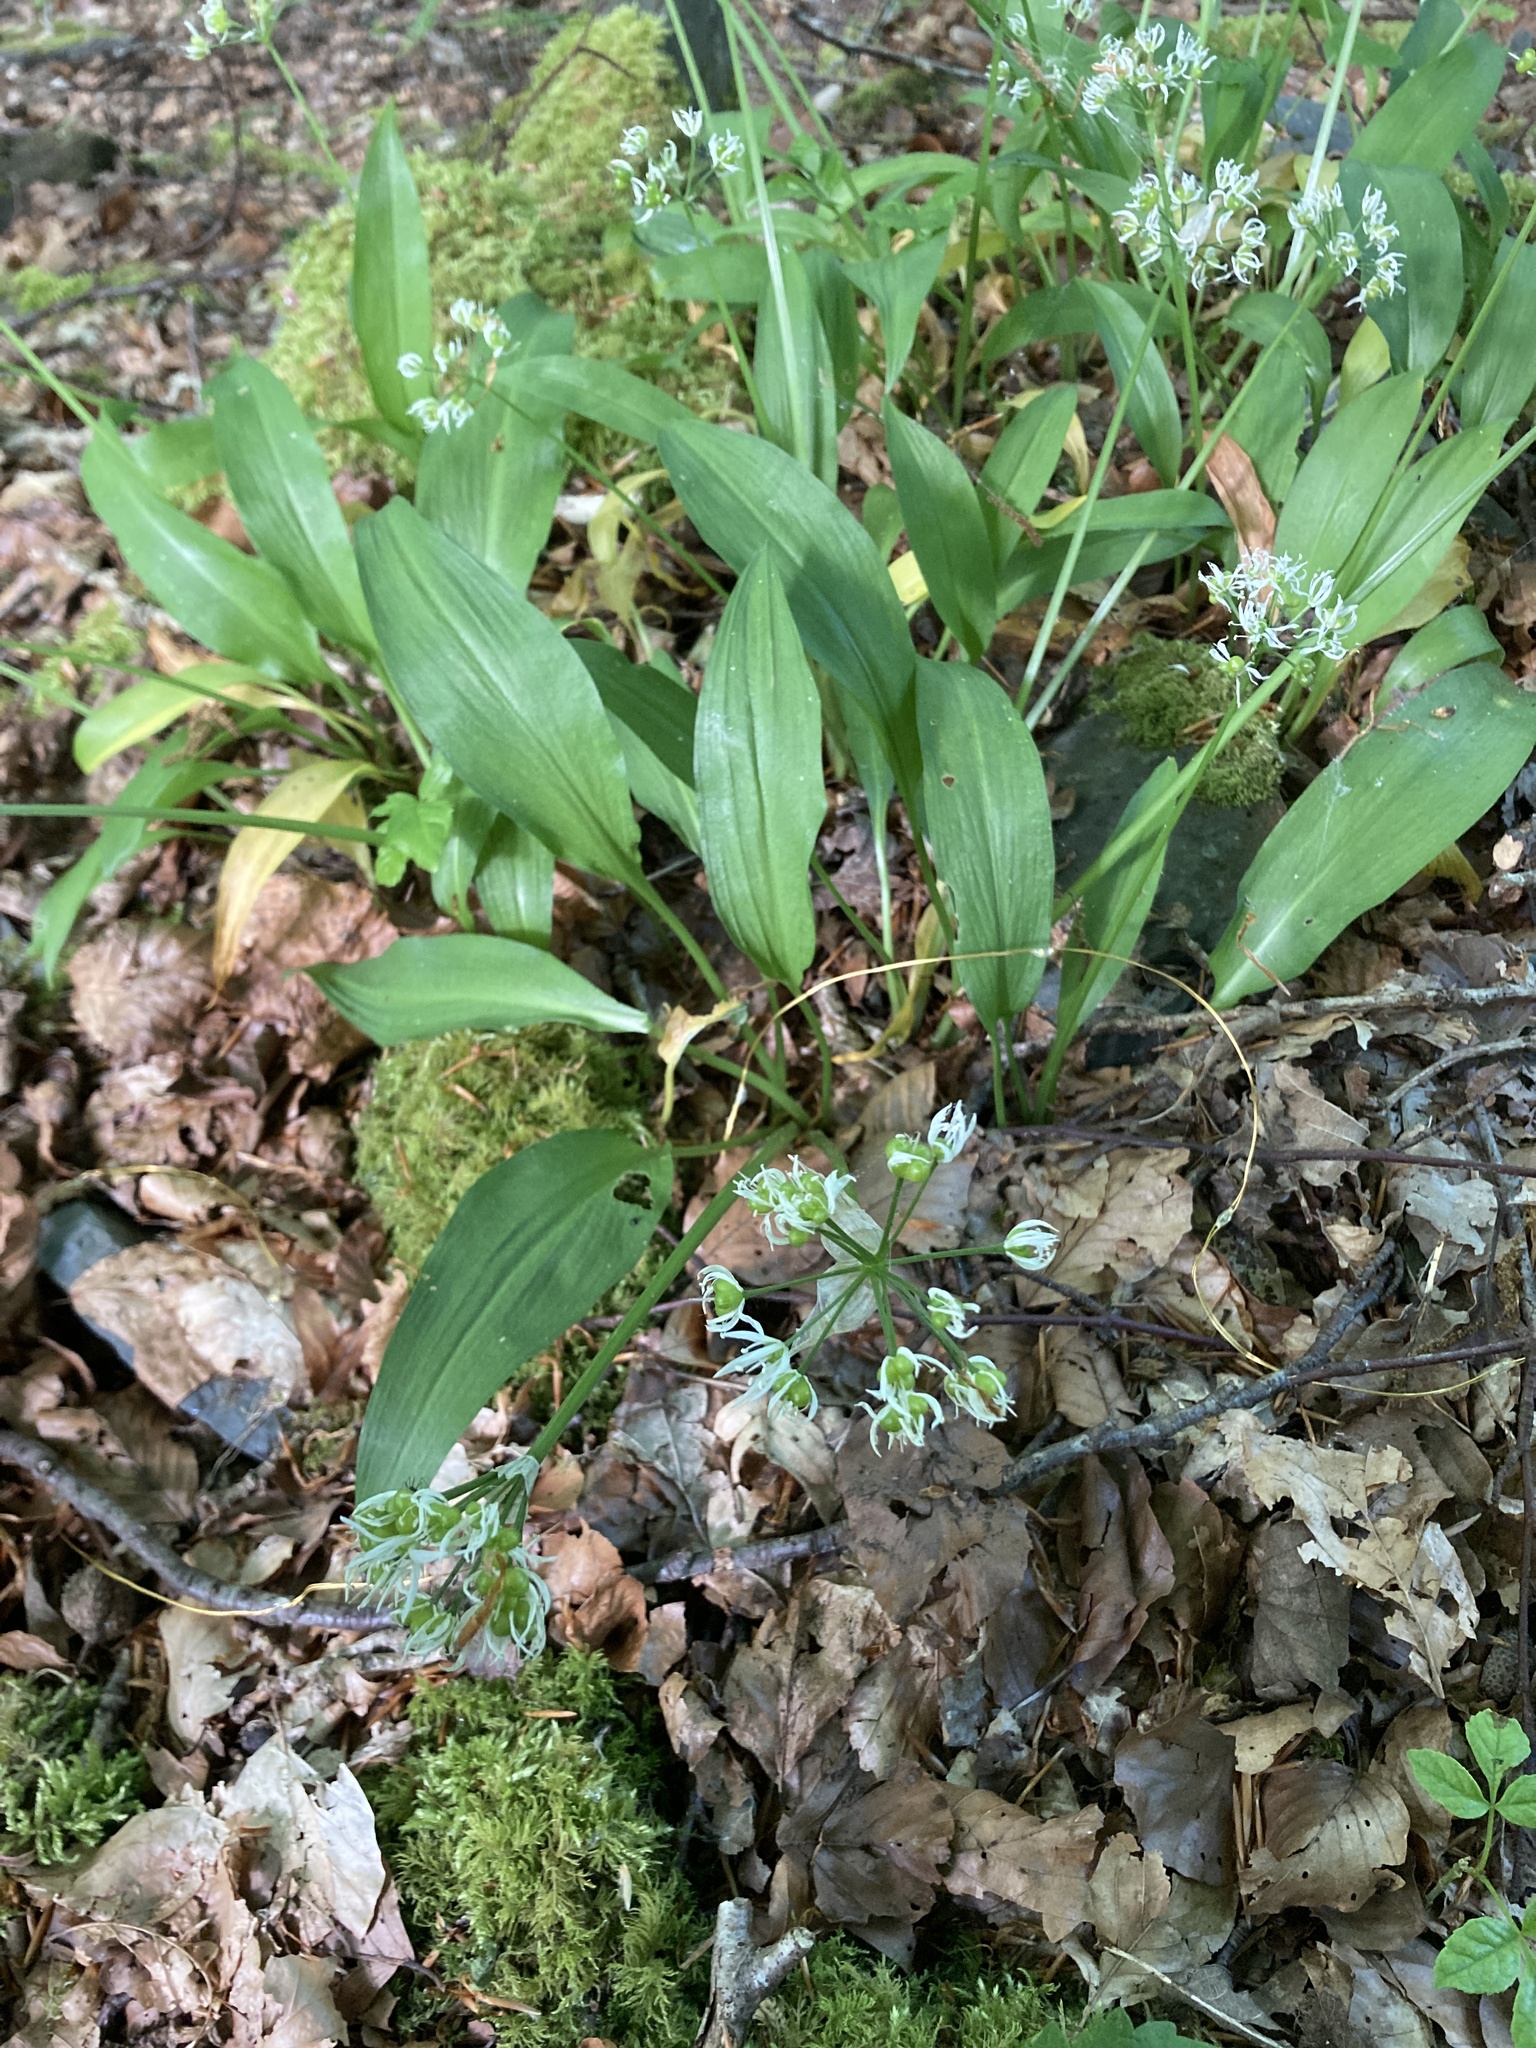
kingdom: Plantae
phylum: Tracheophyta
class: Liliopsida
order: Asparagales
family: Amaryllidaceae
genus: Allium
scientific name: Allium ursinum
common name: Ramsons
